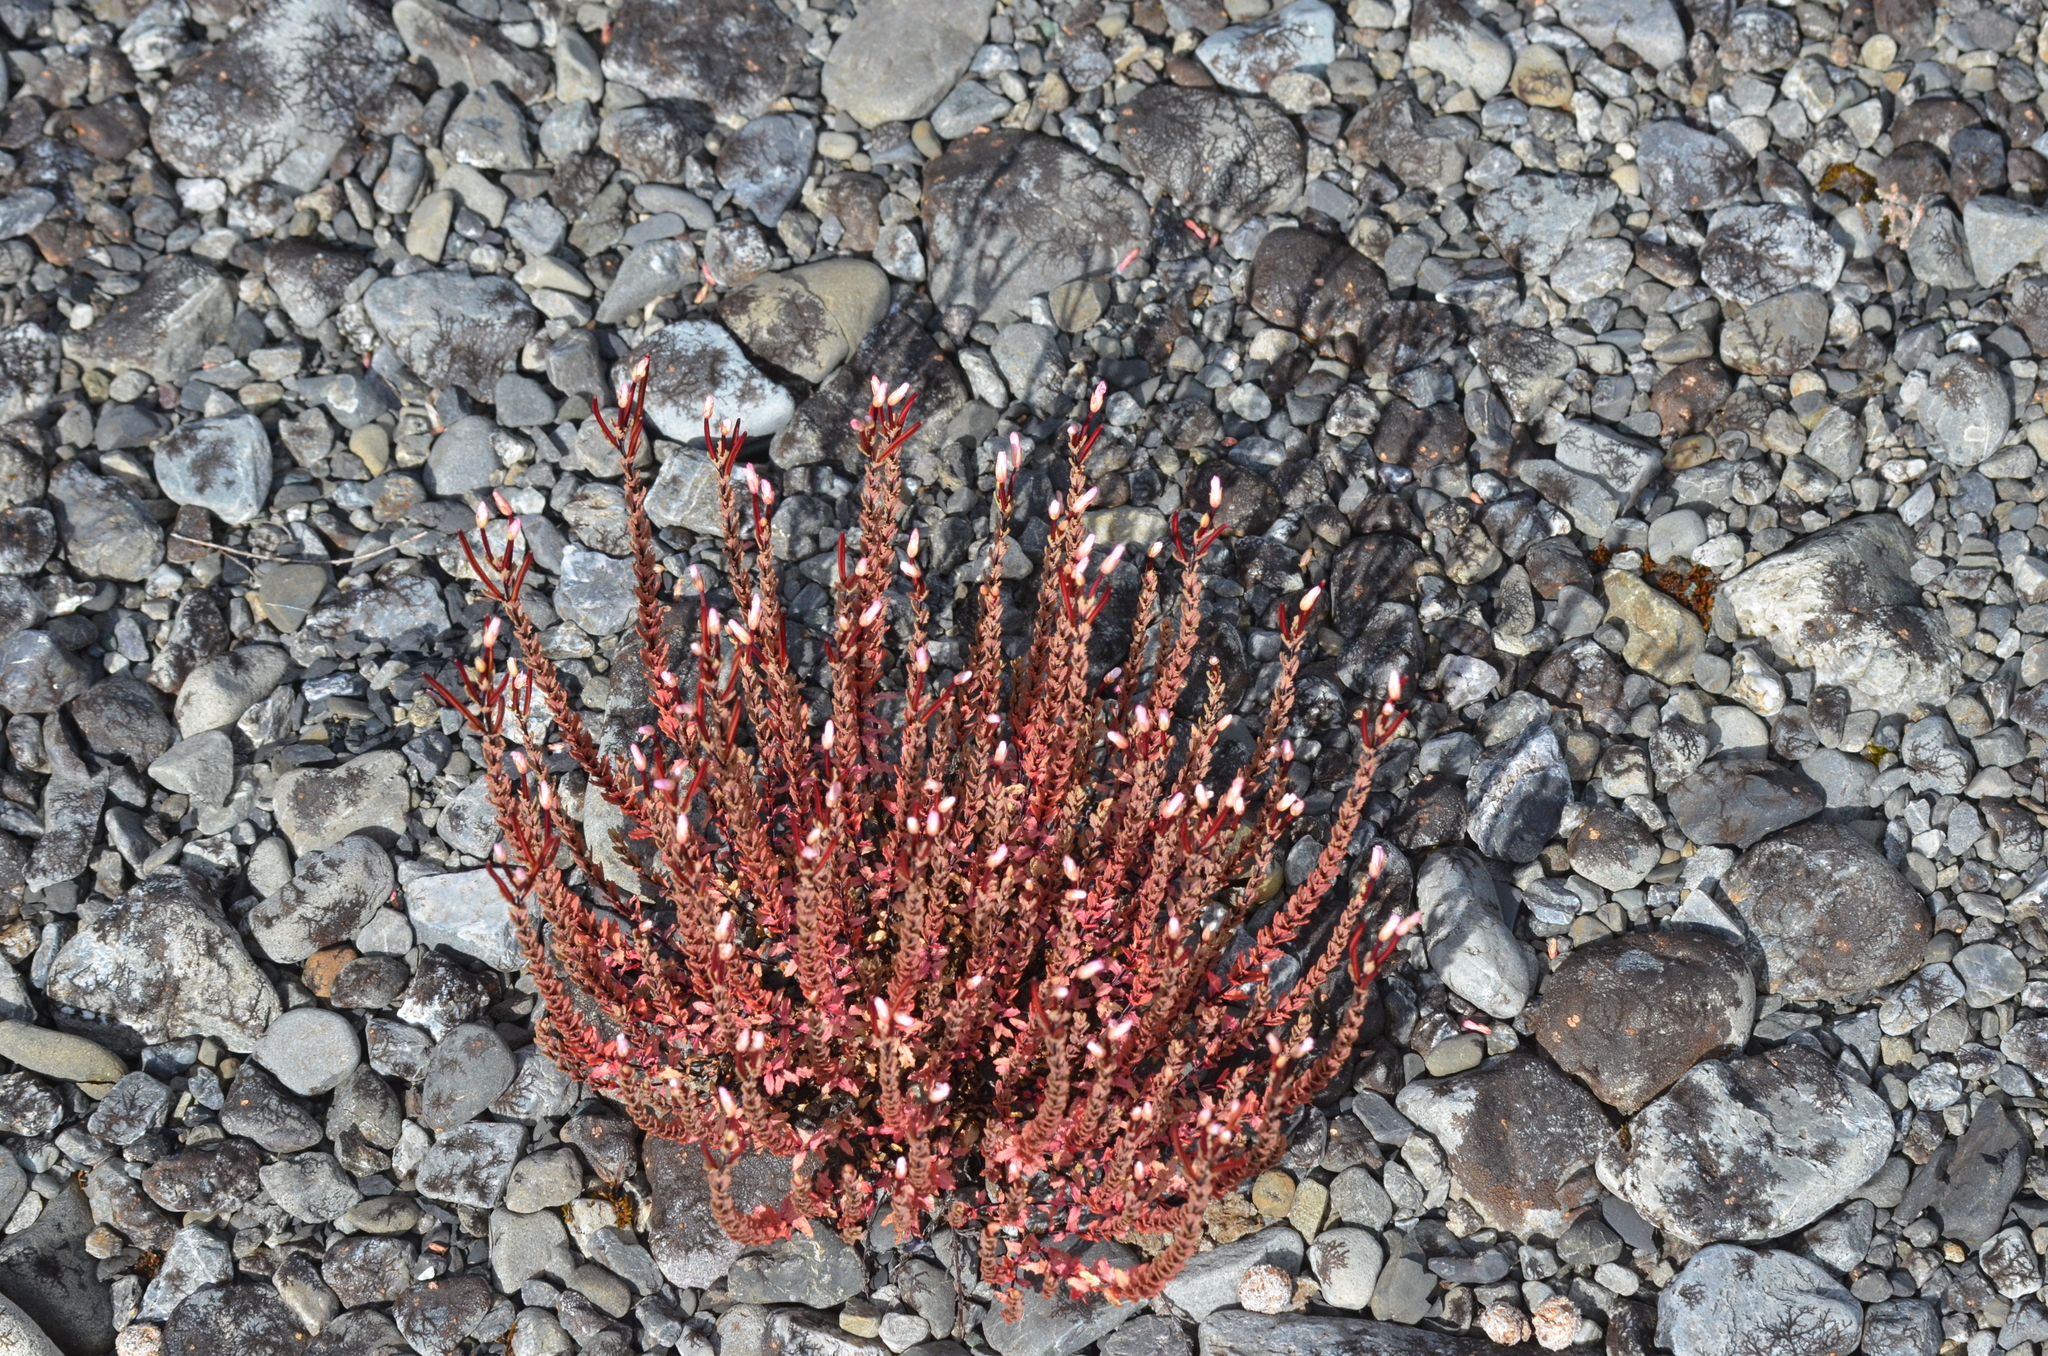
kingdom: Plantae
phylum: Tracheophyta
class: Magnoliopsida
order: Myrtales
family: Onagraceae
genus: Epilobium
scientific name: Epilobium melanocaulon
